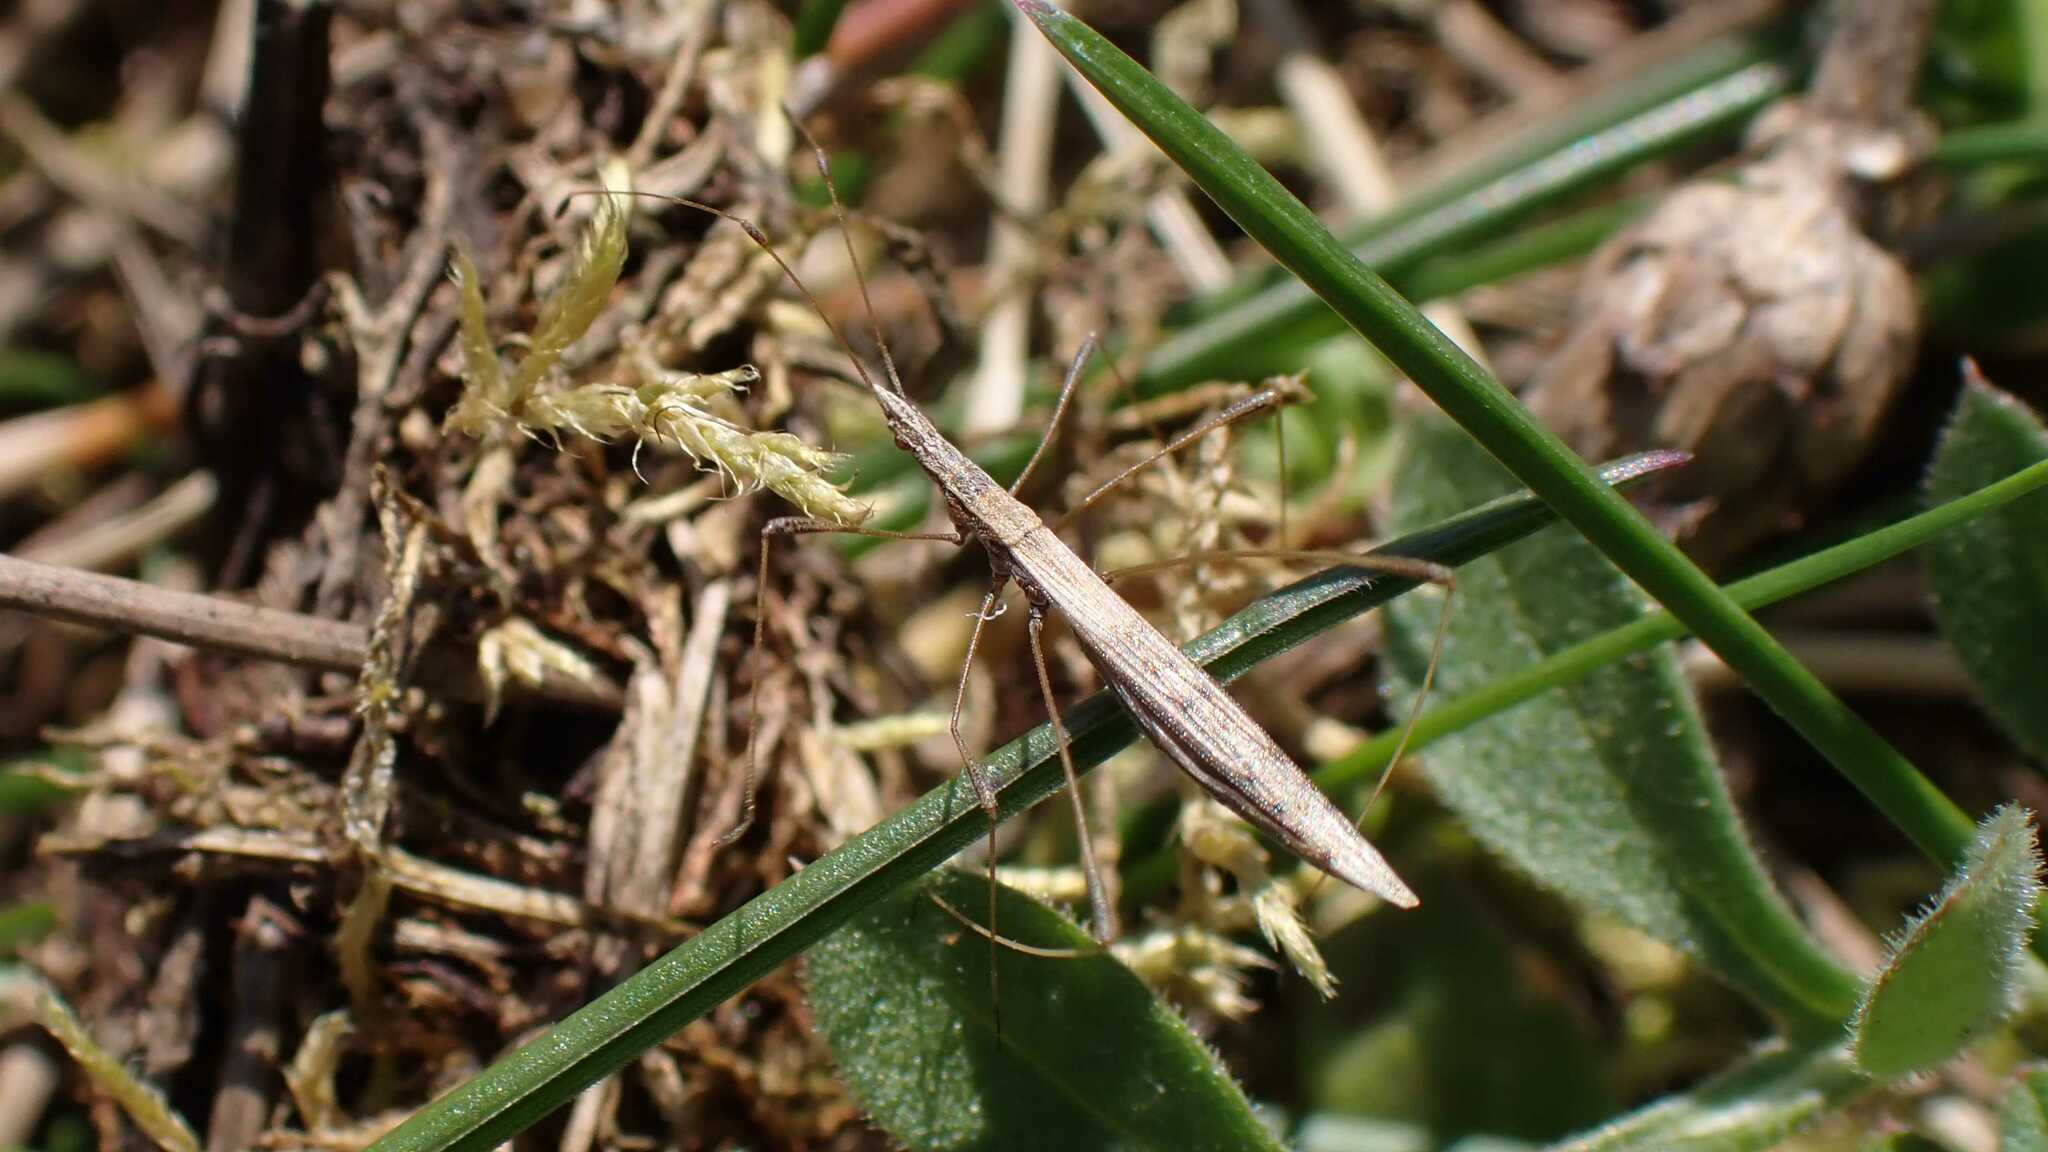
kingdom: Animalia
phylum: Arthropoda
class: Insecta
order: Hemiptera
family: Berytidae
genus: Neides
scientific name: Neides tipularius
